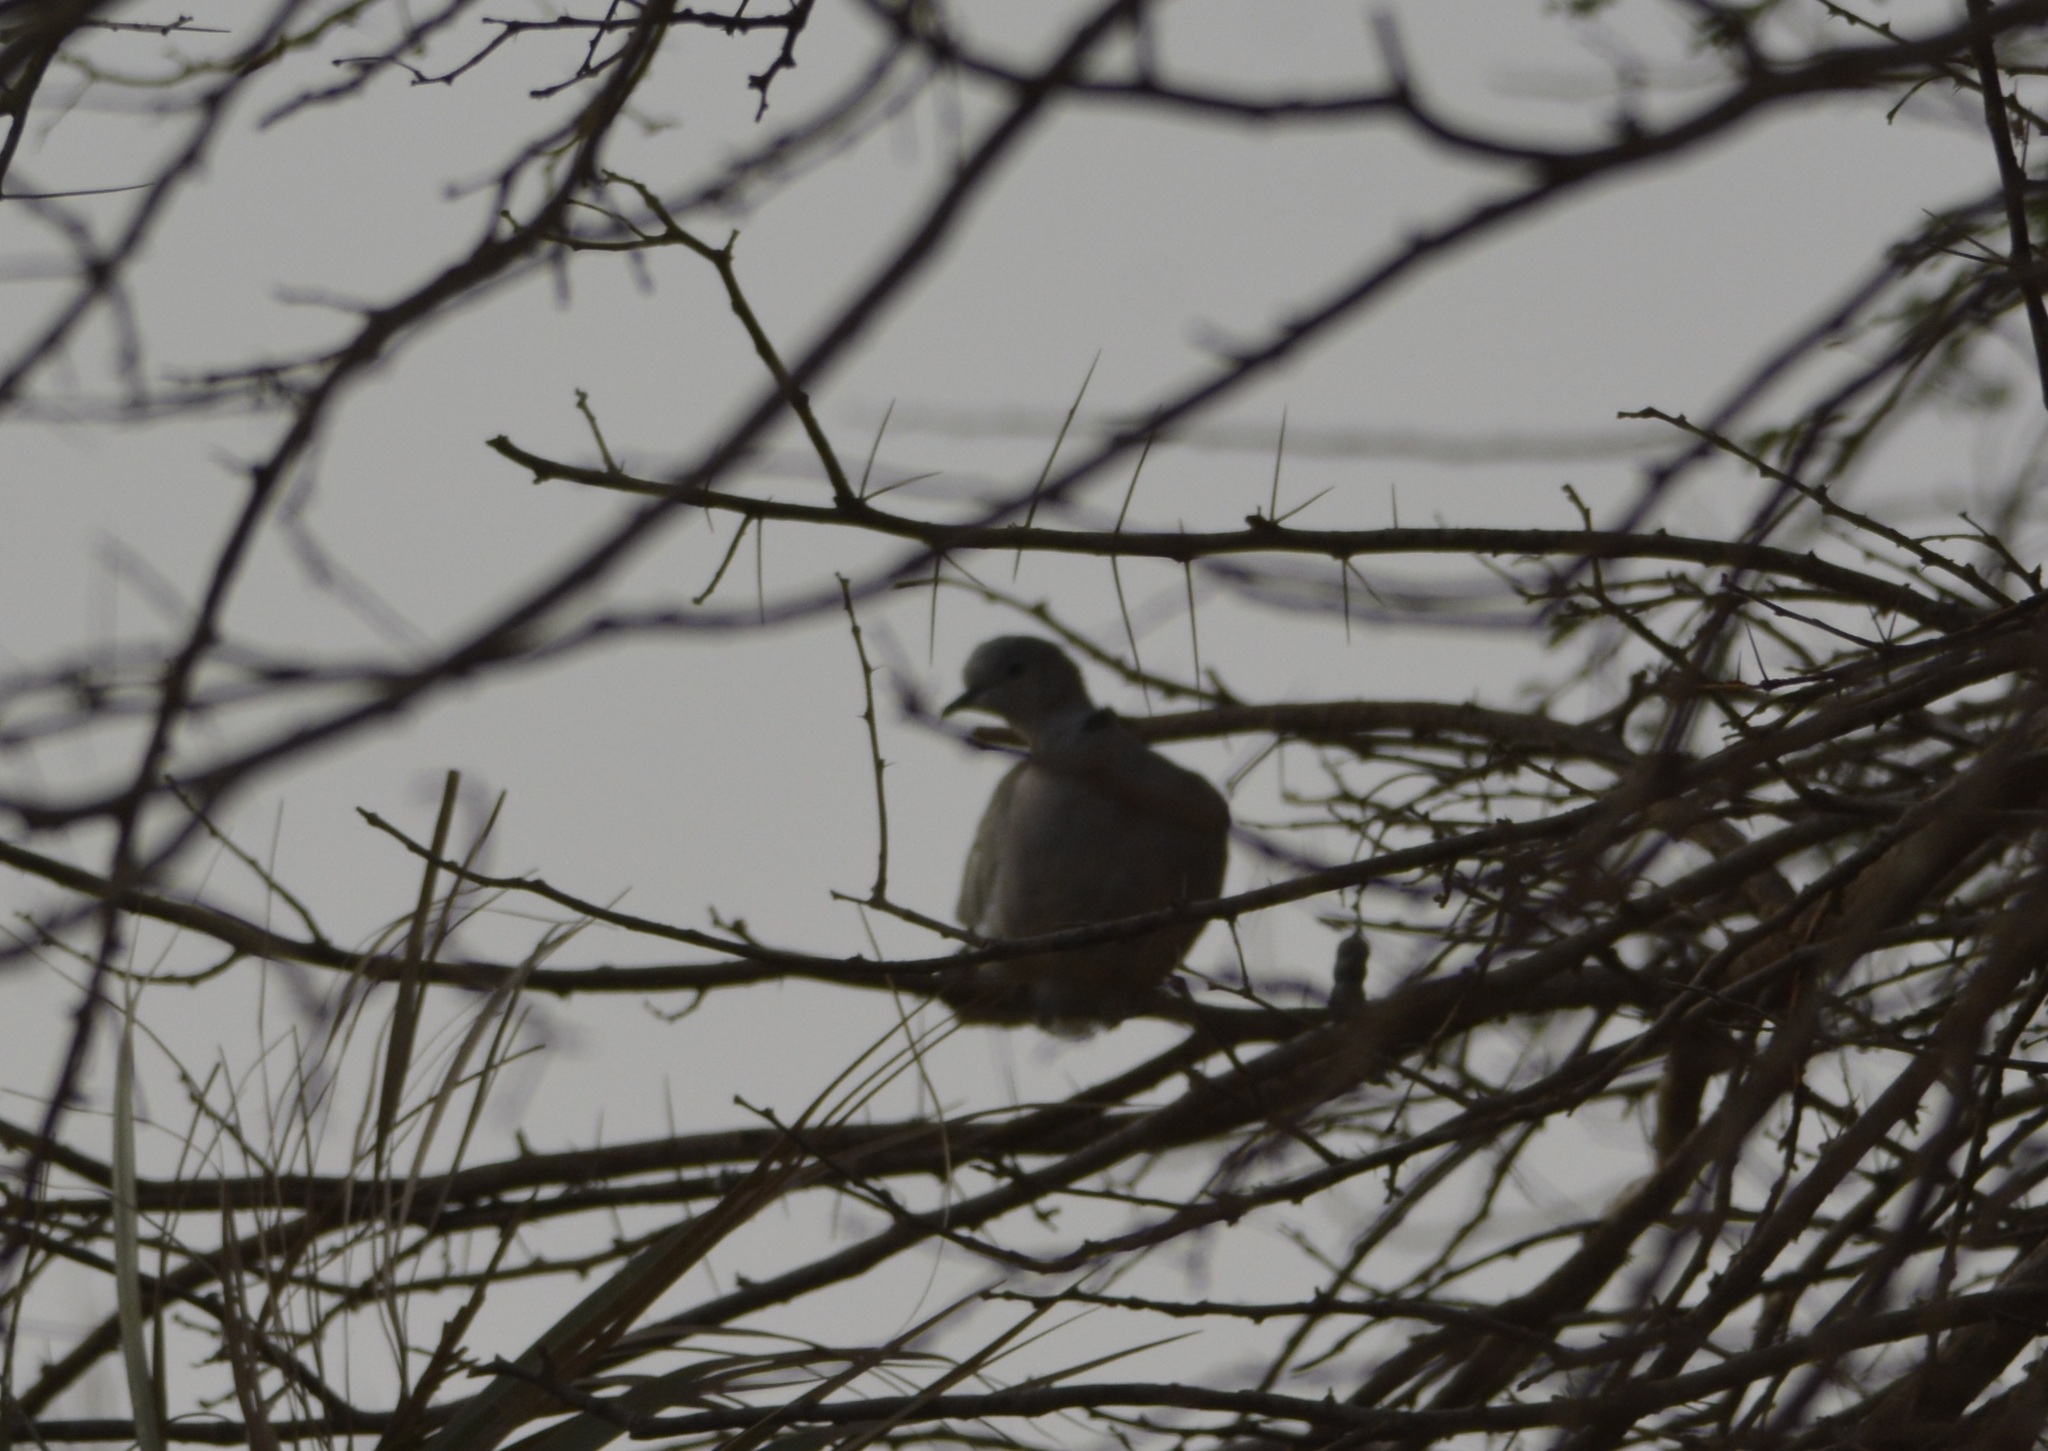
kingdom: Animalia
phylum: Chordata
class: Aves
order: Columbiformes
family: Columbidae
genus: Streptopelia
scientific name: Streptopelia decaocto
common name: Eurasian collared dove
